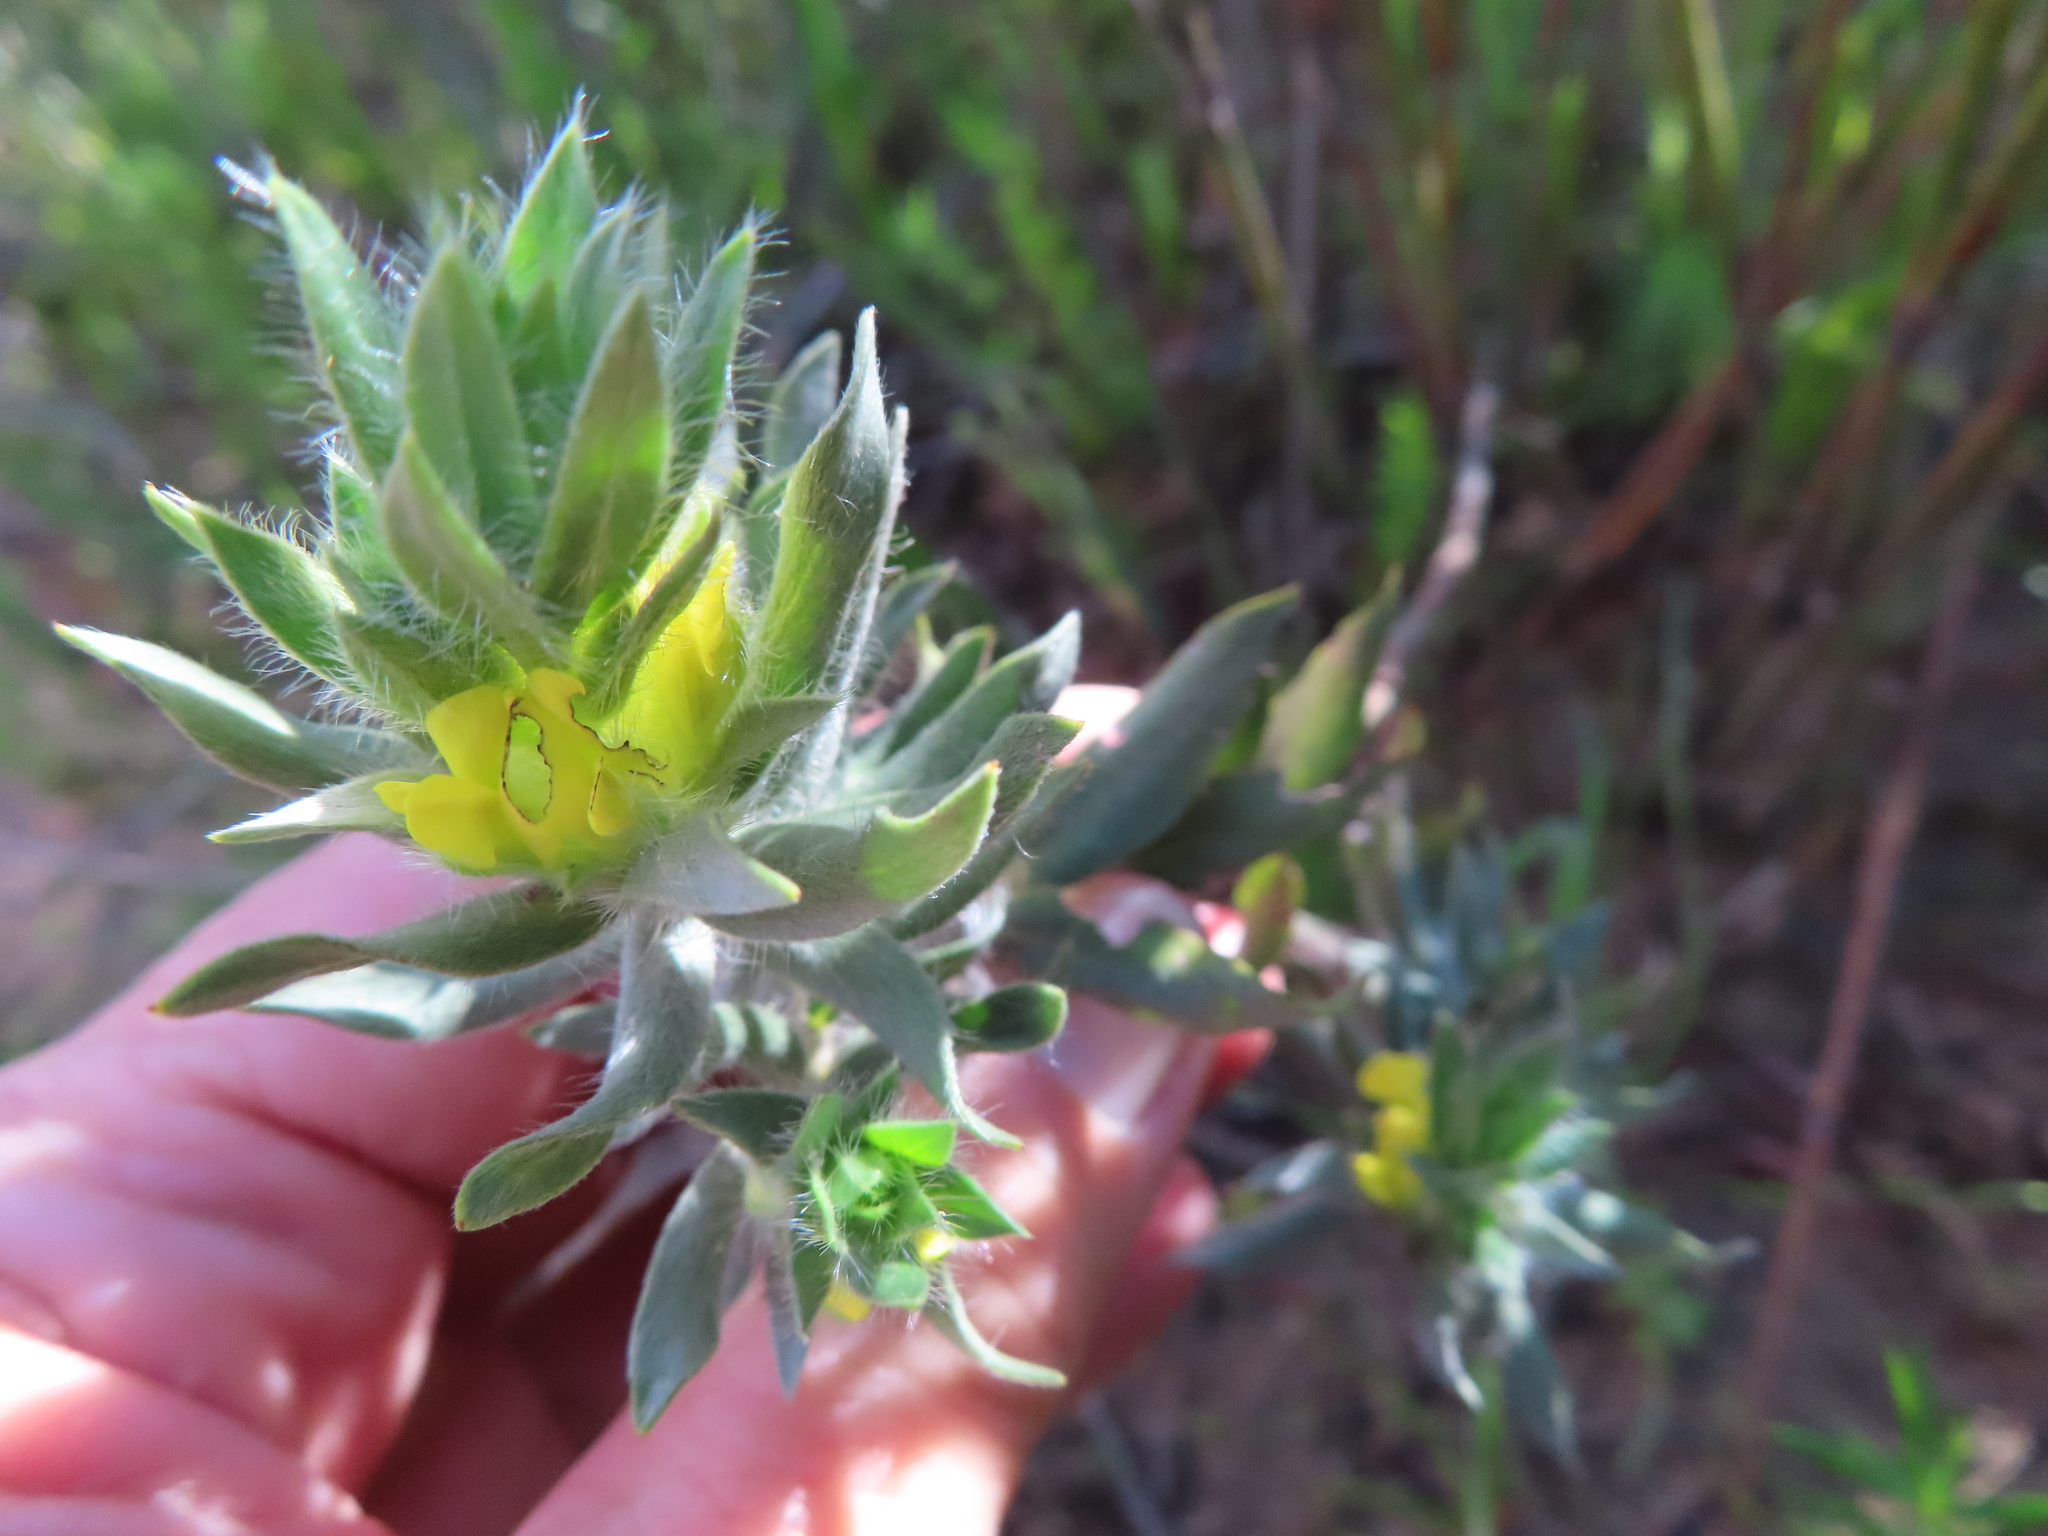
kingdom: Plantae
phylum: Tracheophyta
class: Magnoliopsida
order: Fabales
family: Fabaceae
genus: Xiphotheca
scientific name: Xiphotheca lanceolata
